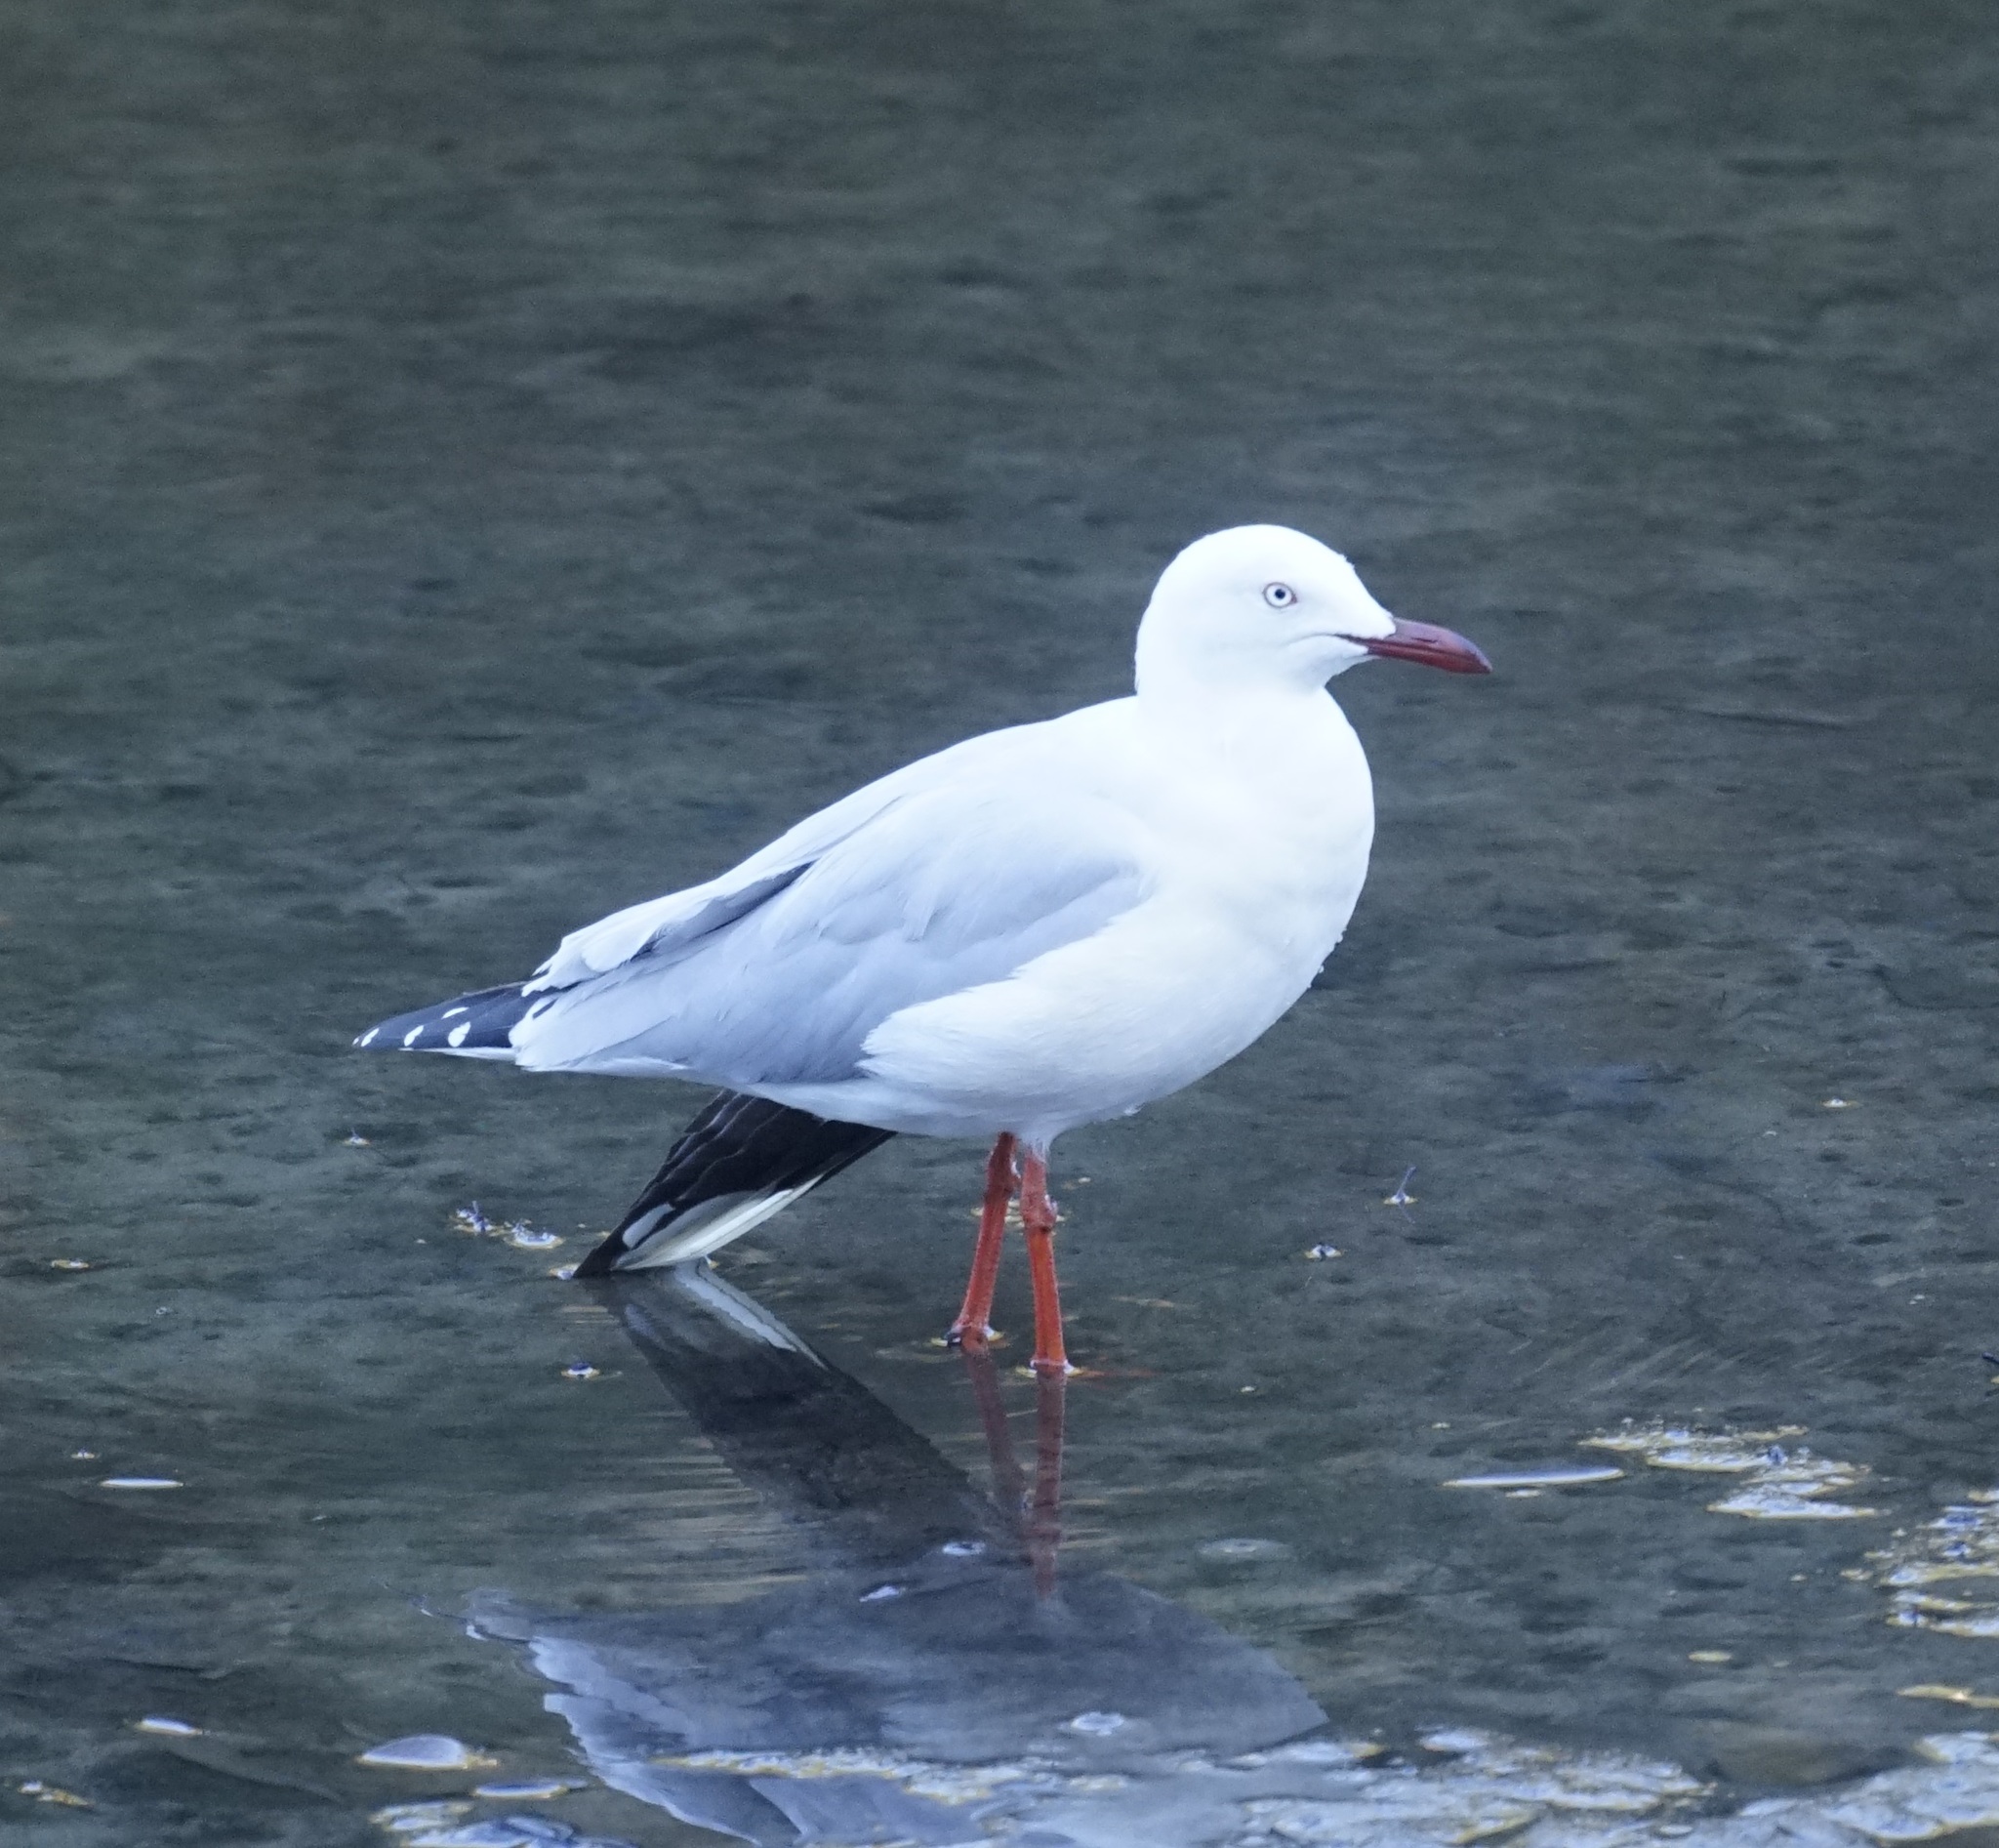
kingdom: Animalia
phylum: Chordata
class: Aves
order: Charadriiformes
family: Laridae
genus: Chroicocephalus
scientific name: Chroicocephalus novaehollandiae
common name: Silver gull
